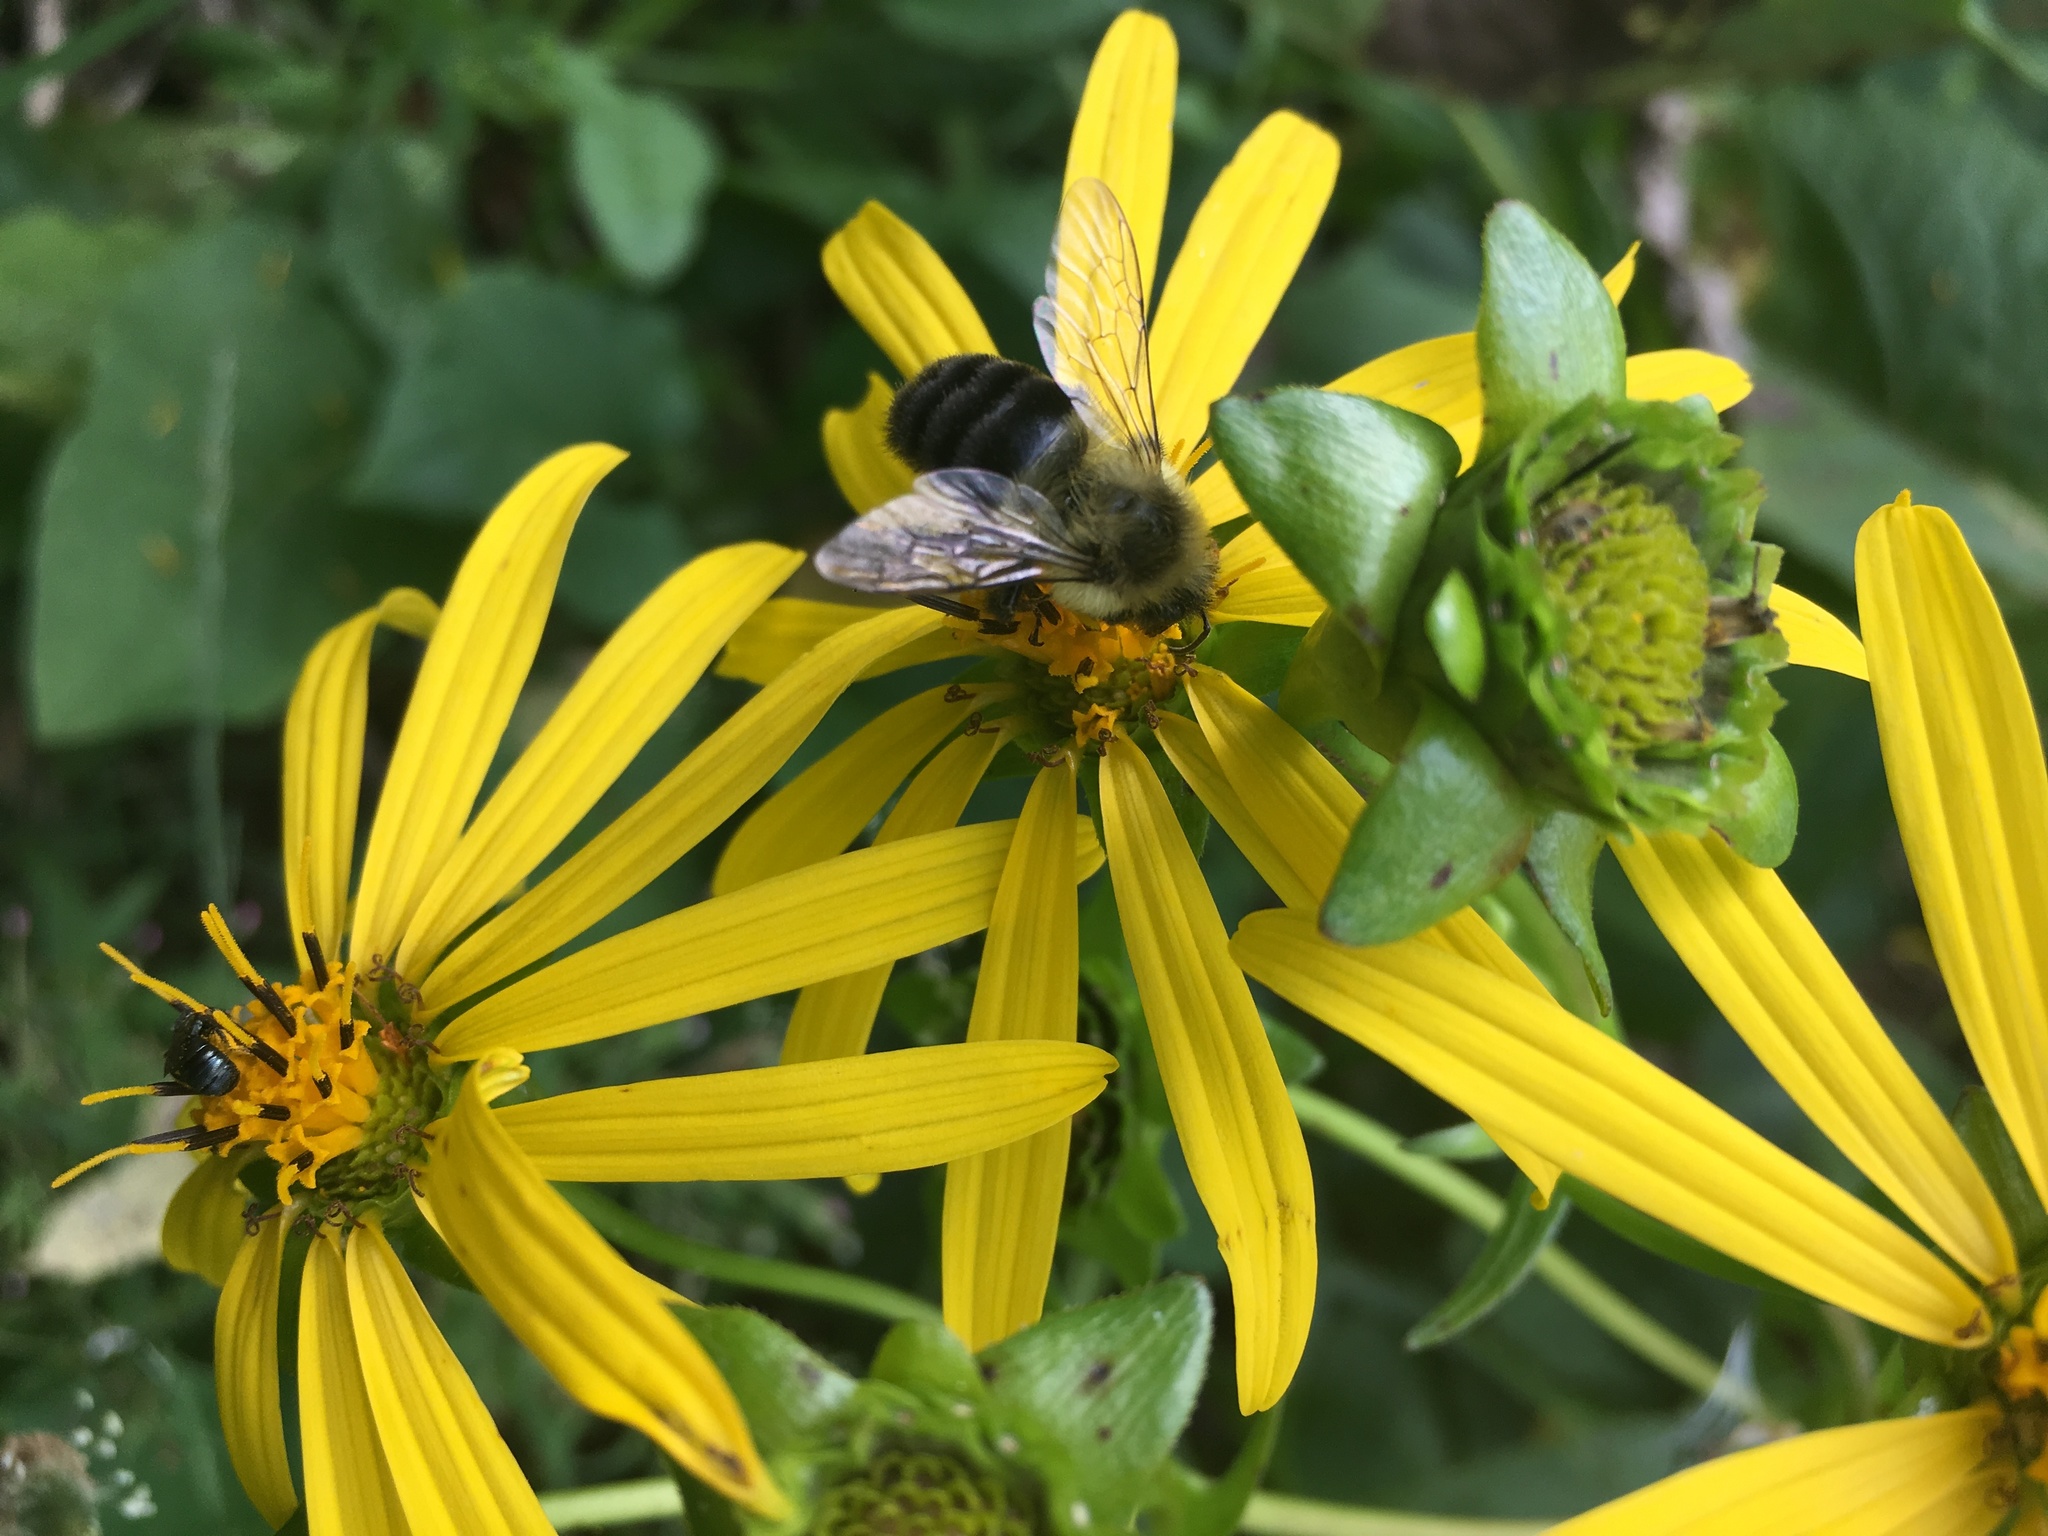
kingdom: Animalia
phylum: Arthropoda
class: Insecta
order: Hymenoptera
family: Apidae
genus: Bombus
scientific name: Bombus impatiens
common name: Common eastern bumble bee
